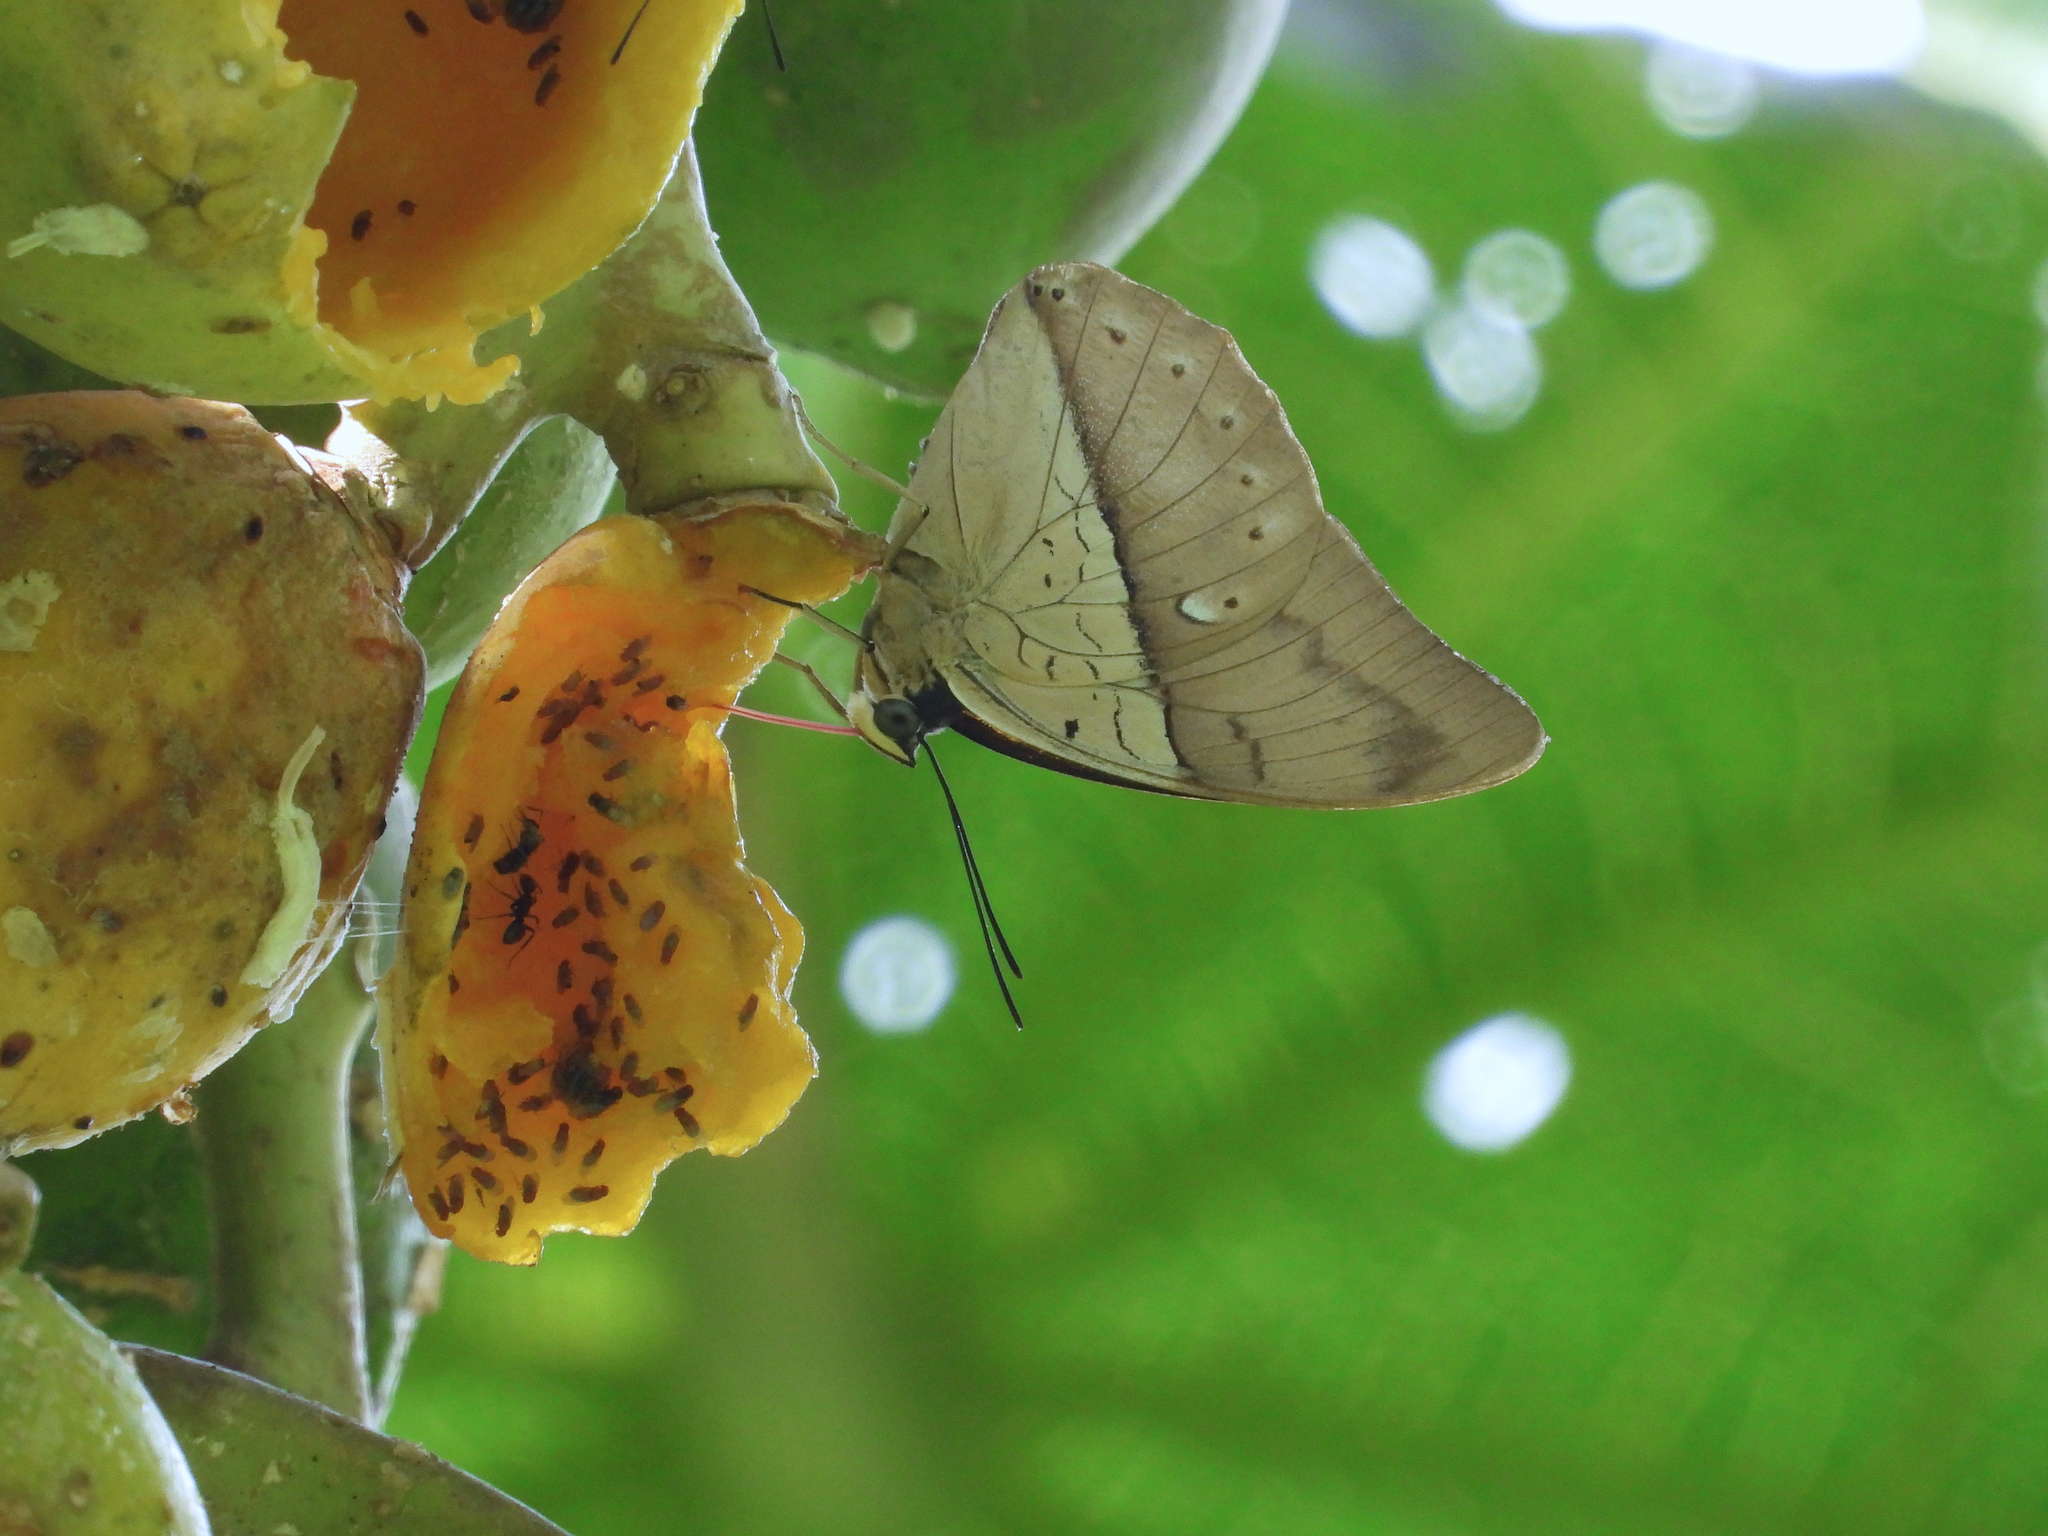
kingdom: Animalia
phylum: Arthropoda
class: Insecta
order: Lepidoptera
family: Nymphalidae
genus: Prepona
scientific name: Prepona meander
